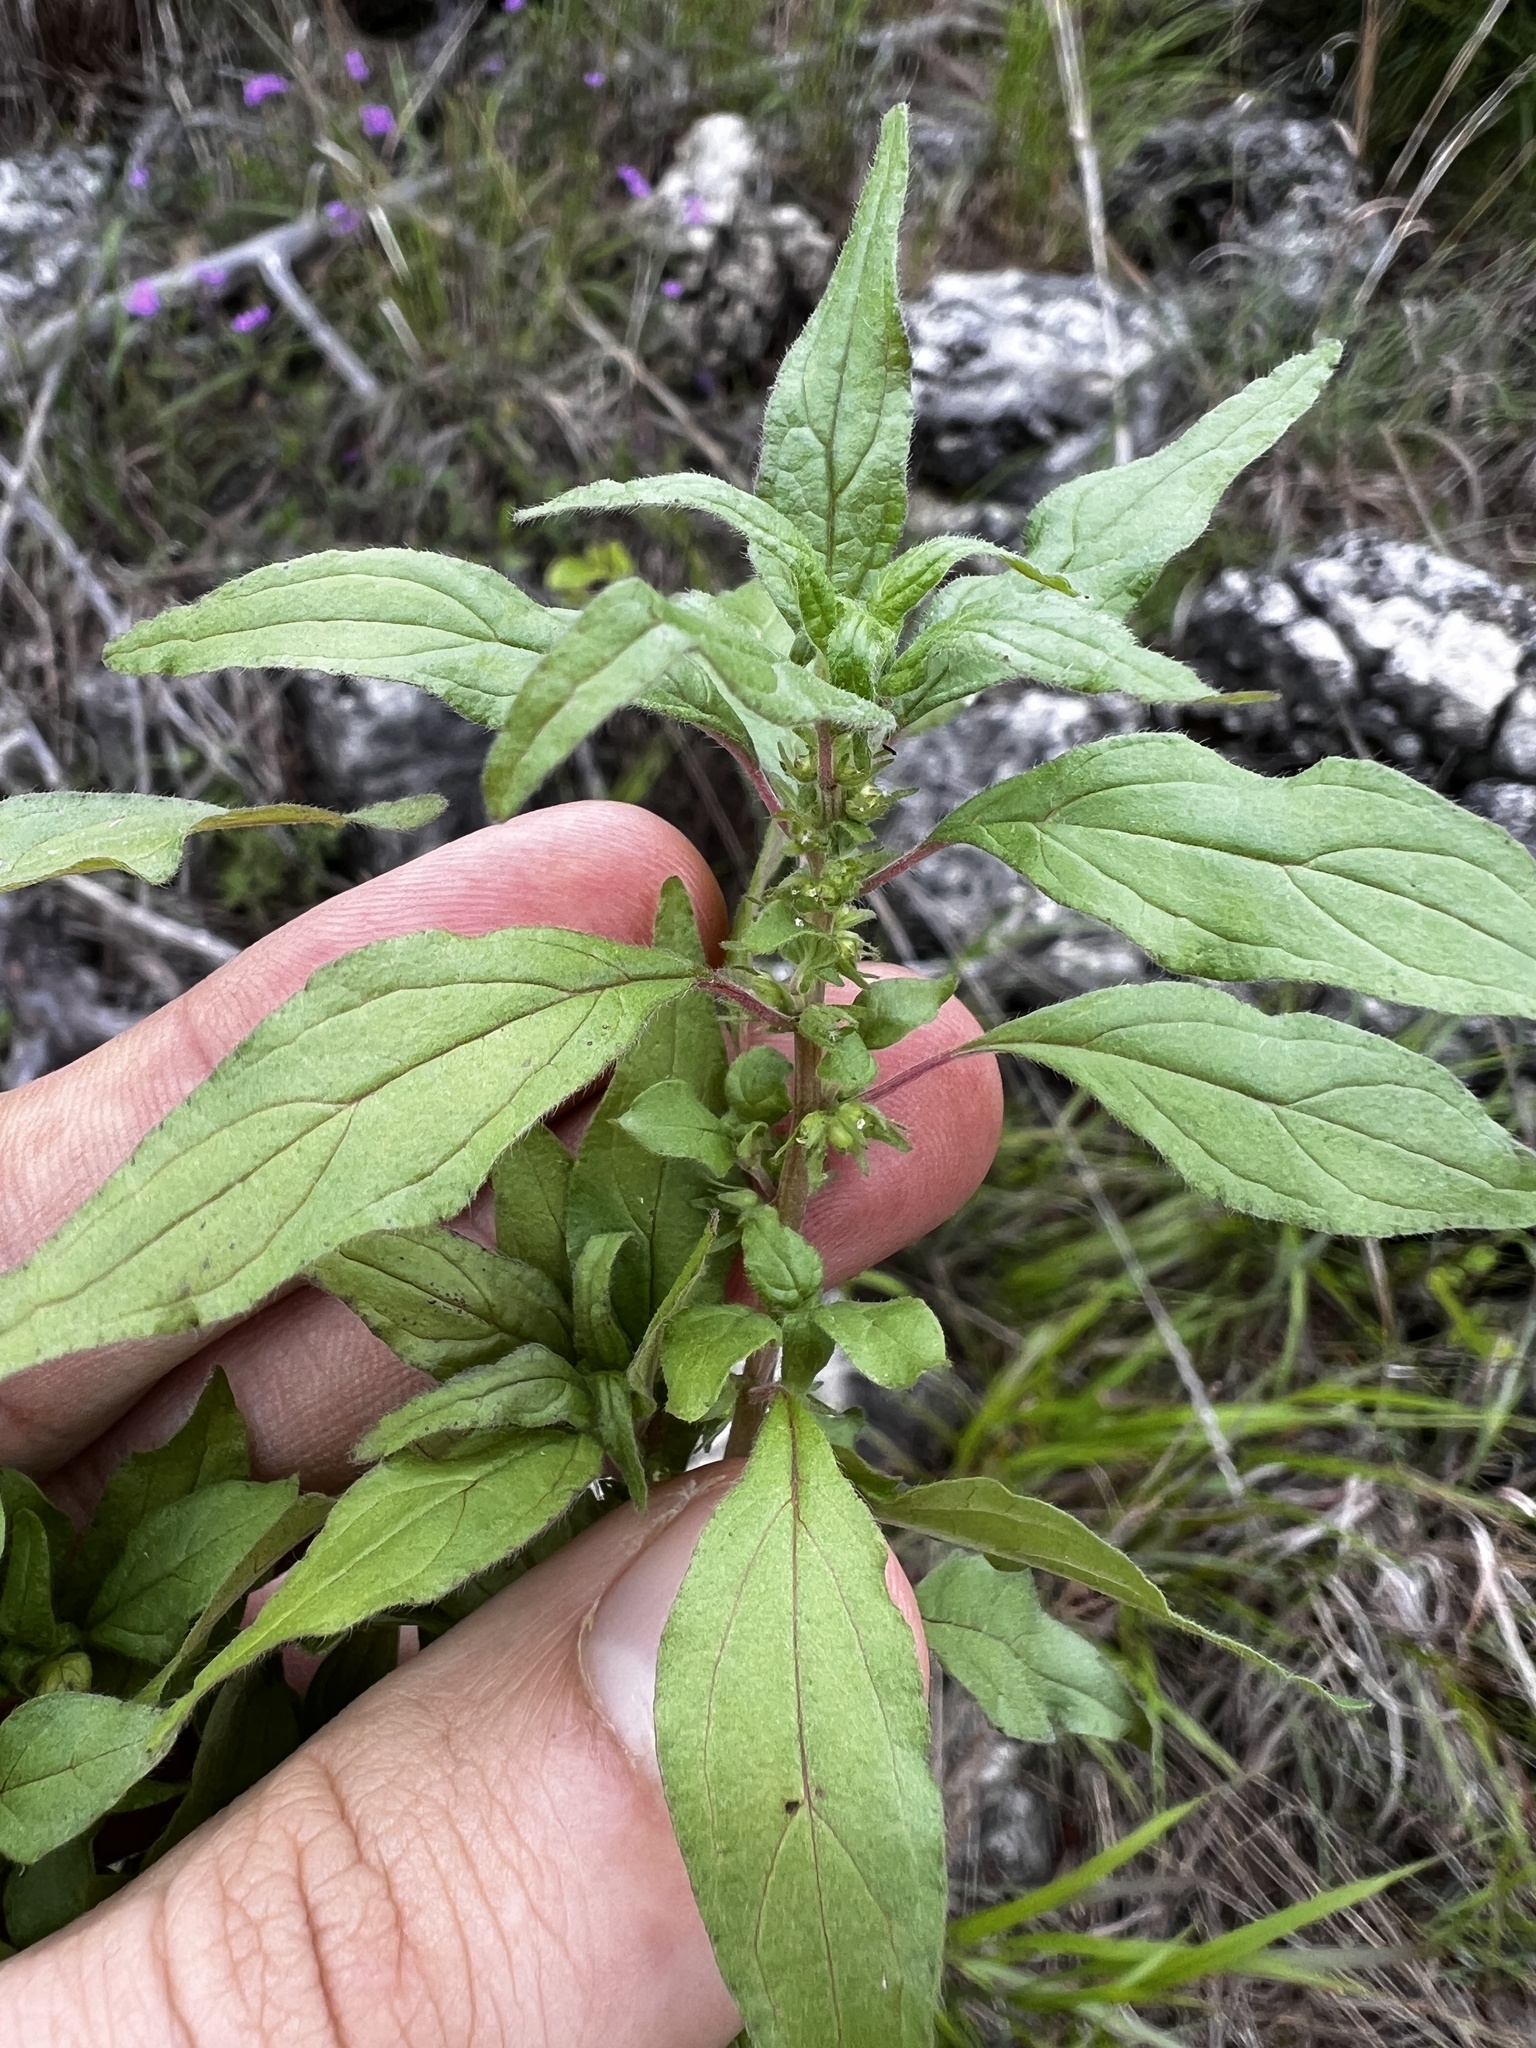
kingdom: Plantae
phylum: Tracheophyta
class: Magnoliopsida
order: Rosales
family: Urticaceae
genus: Parietaria
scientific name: Parietaria pensylvanica
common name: Pennsylvania pellitory
